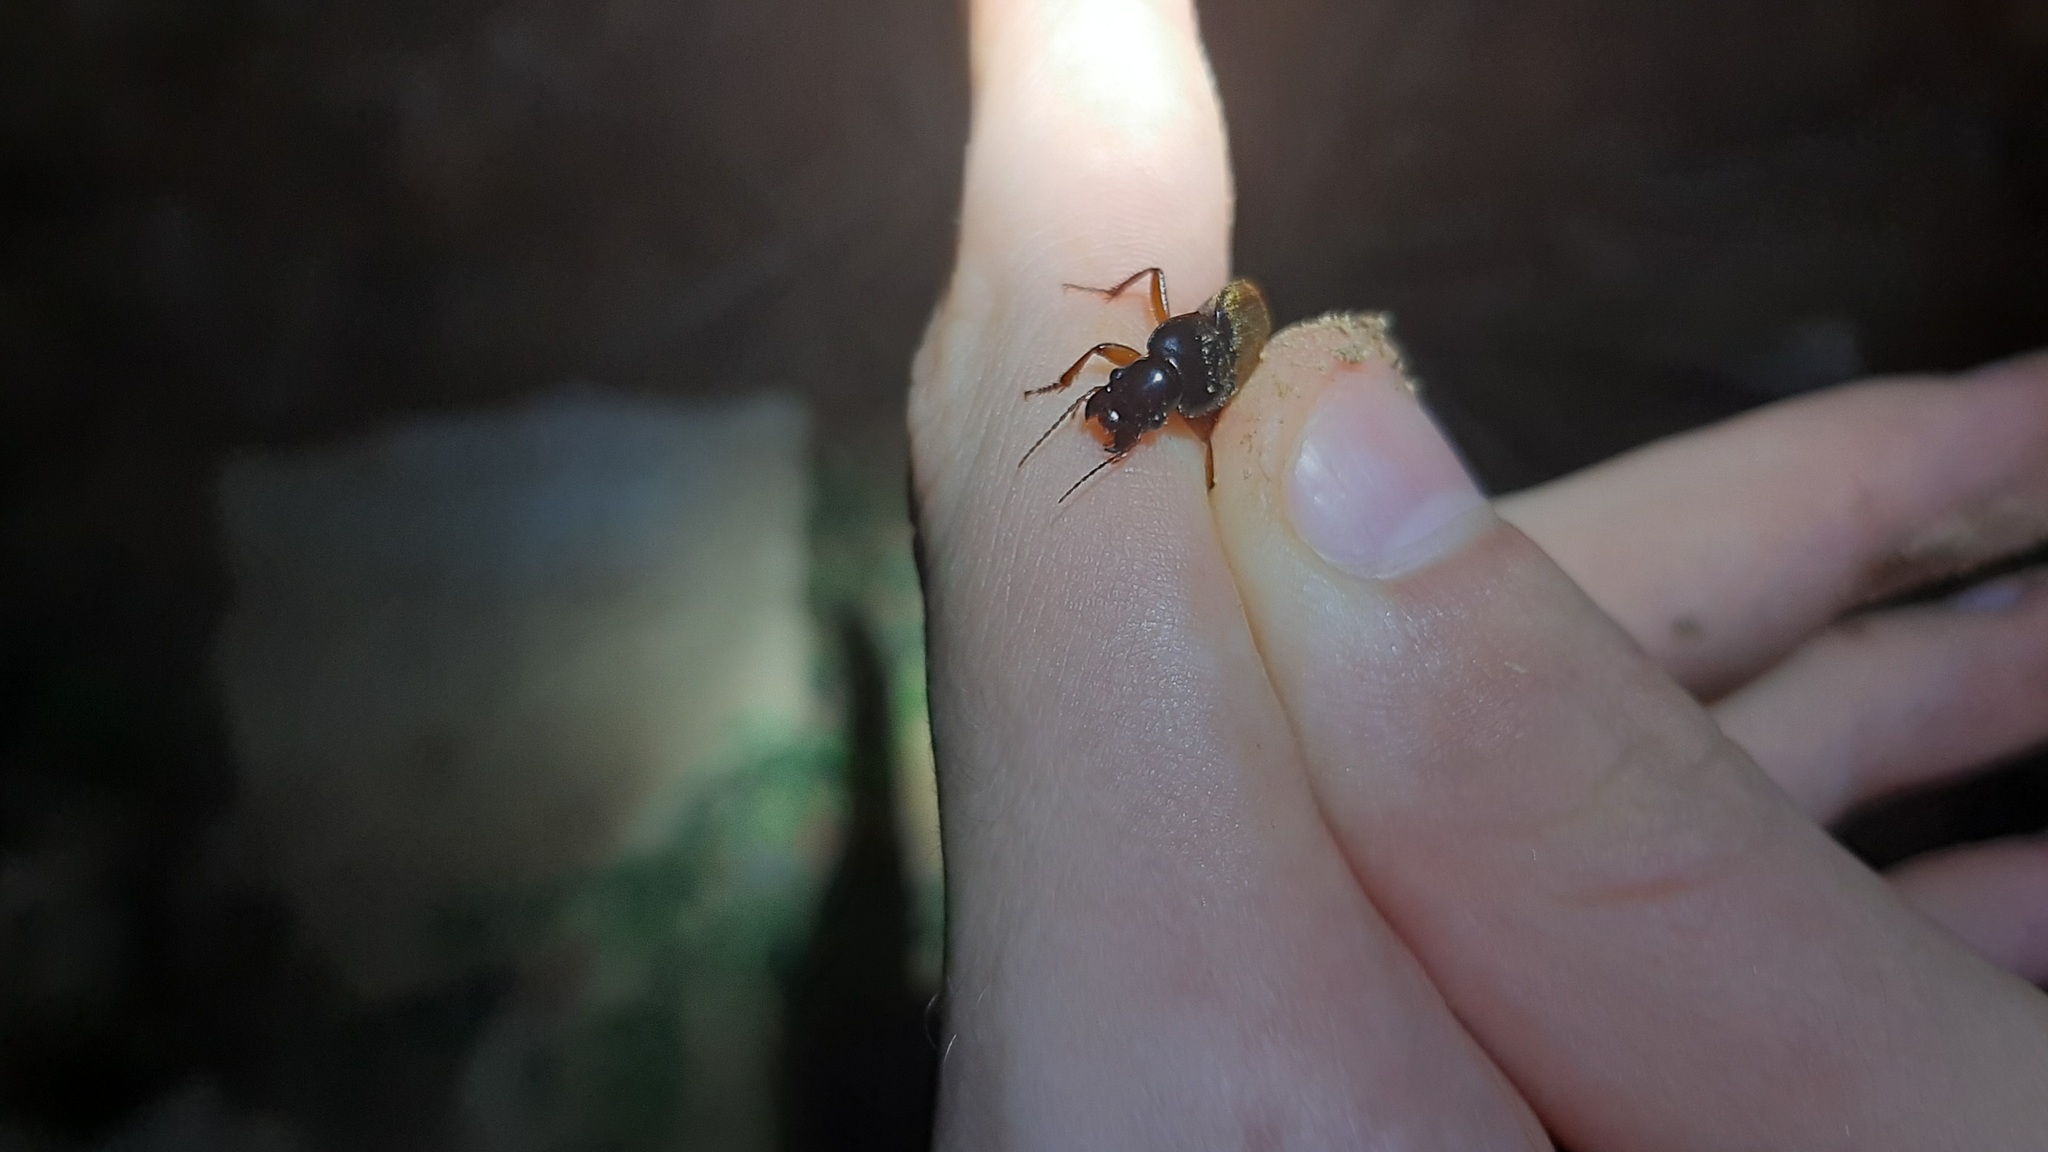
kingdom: Animalia
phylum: Arthropoda
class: Insecta
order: Coleoptera
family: Carabidae
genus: Harpalus
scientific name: Harpalus rufipes
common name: Strawberry harp ground beetle
